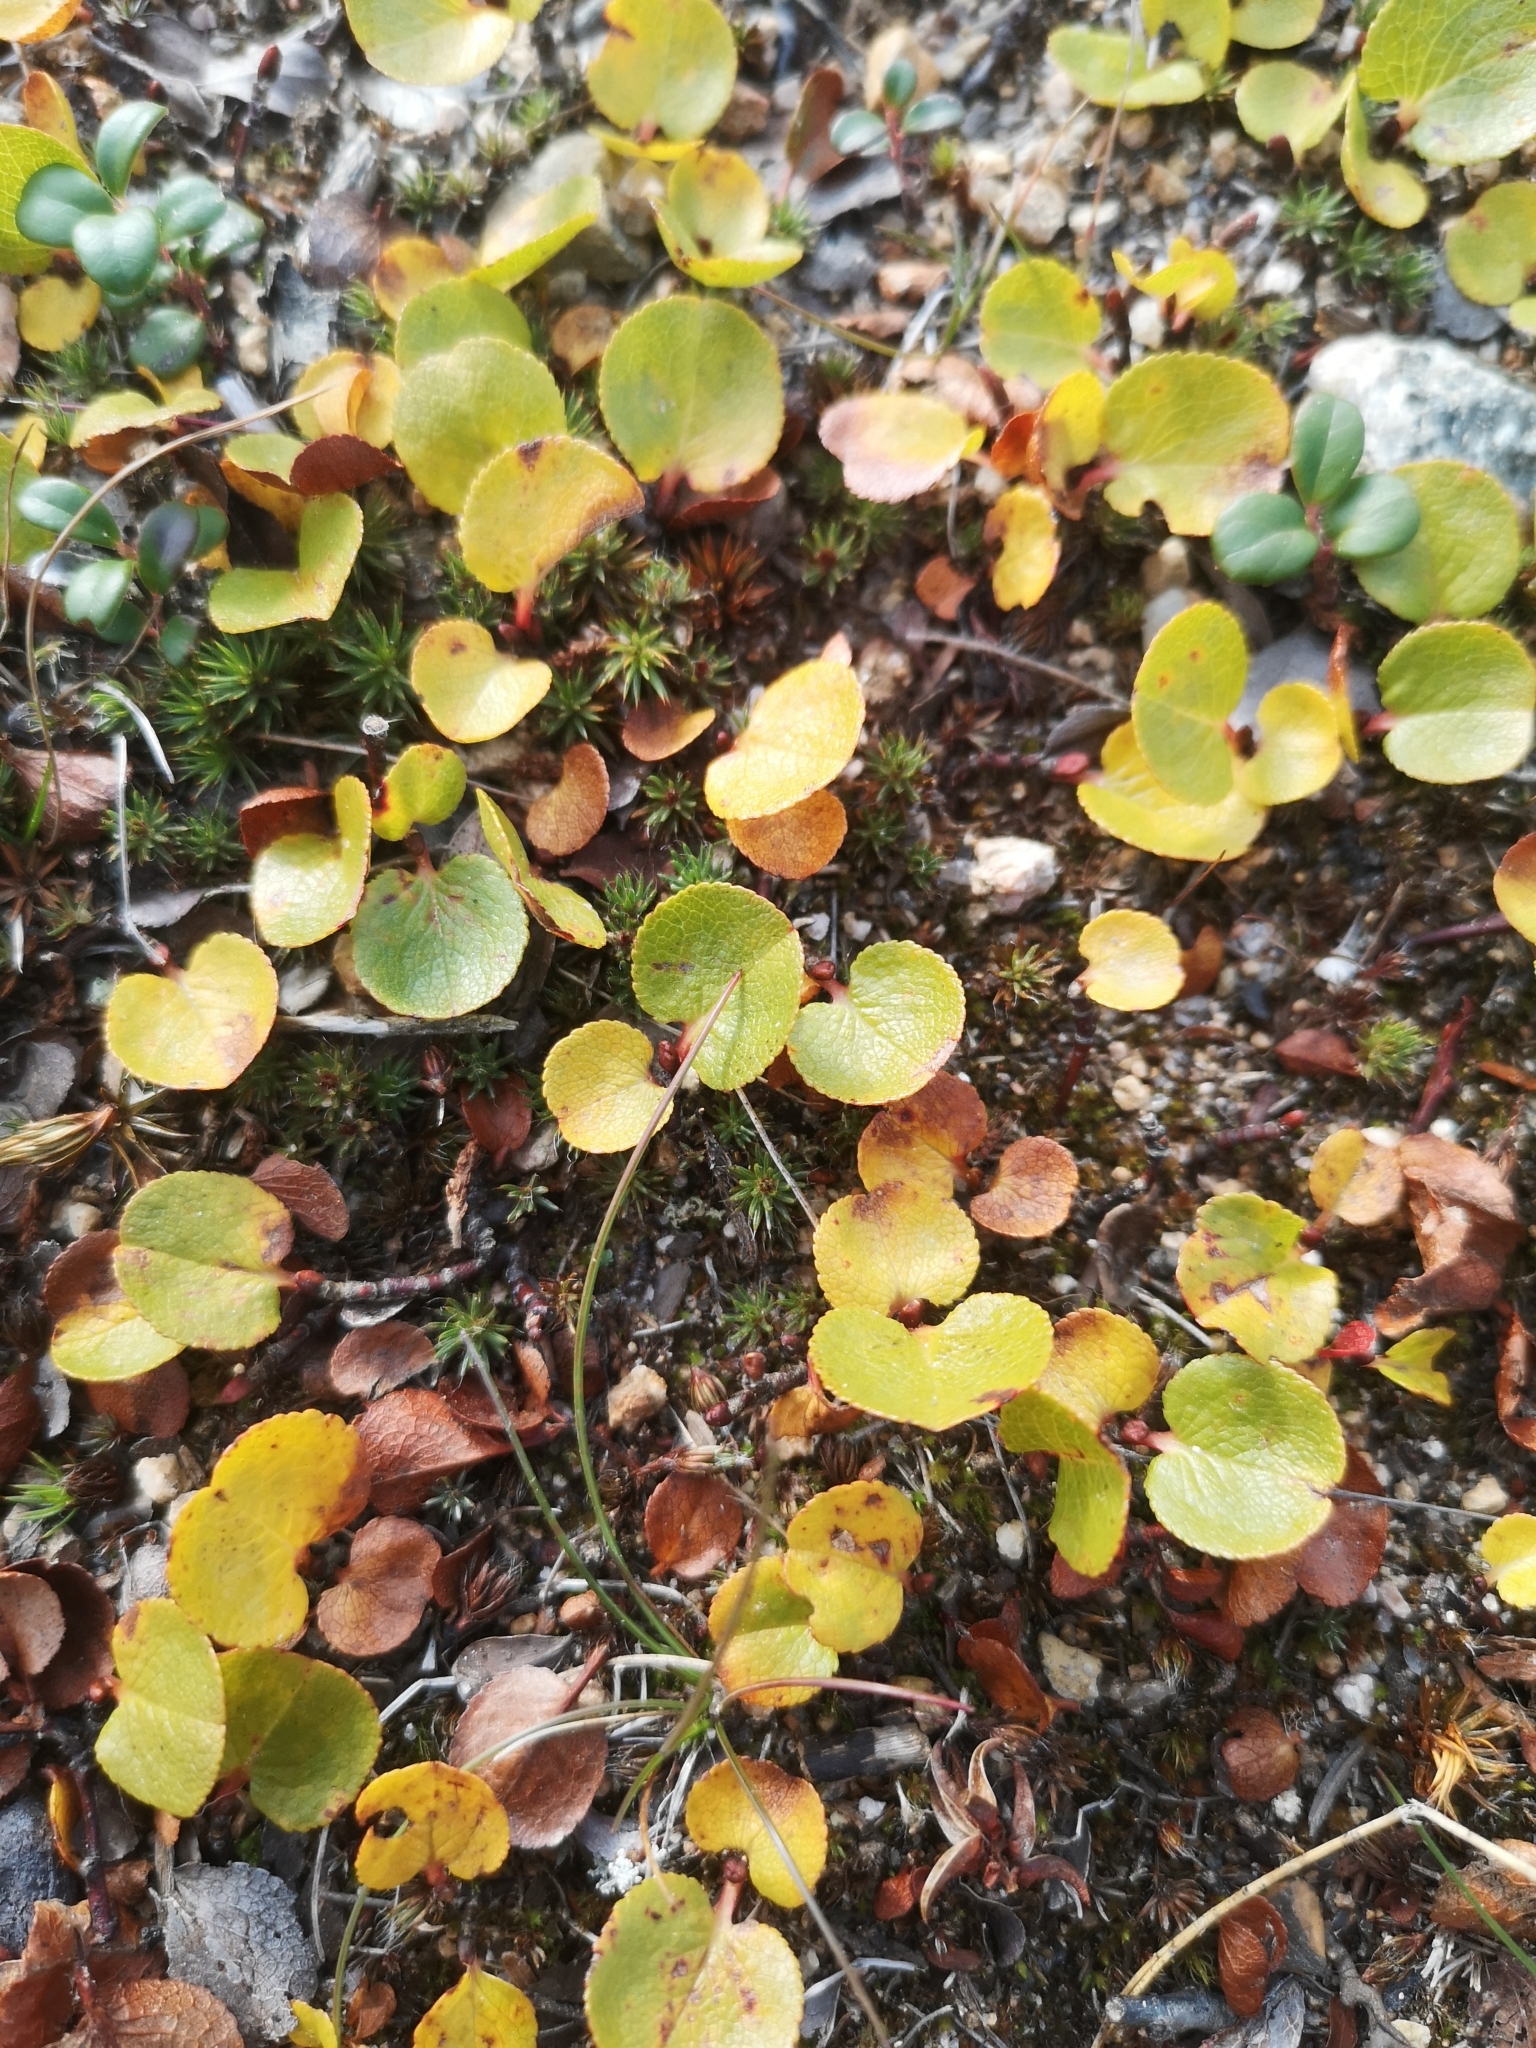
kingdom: Plantae
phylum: Tracheophyta
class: Magnoliopsida
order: Malpighiales
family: Salicaceae
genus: Salix
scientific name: Salix herbacea
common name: Dwarf willow
